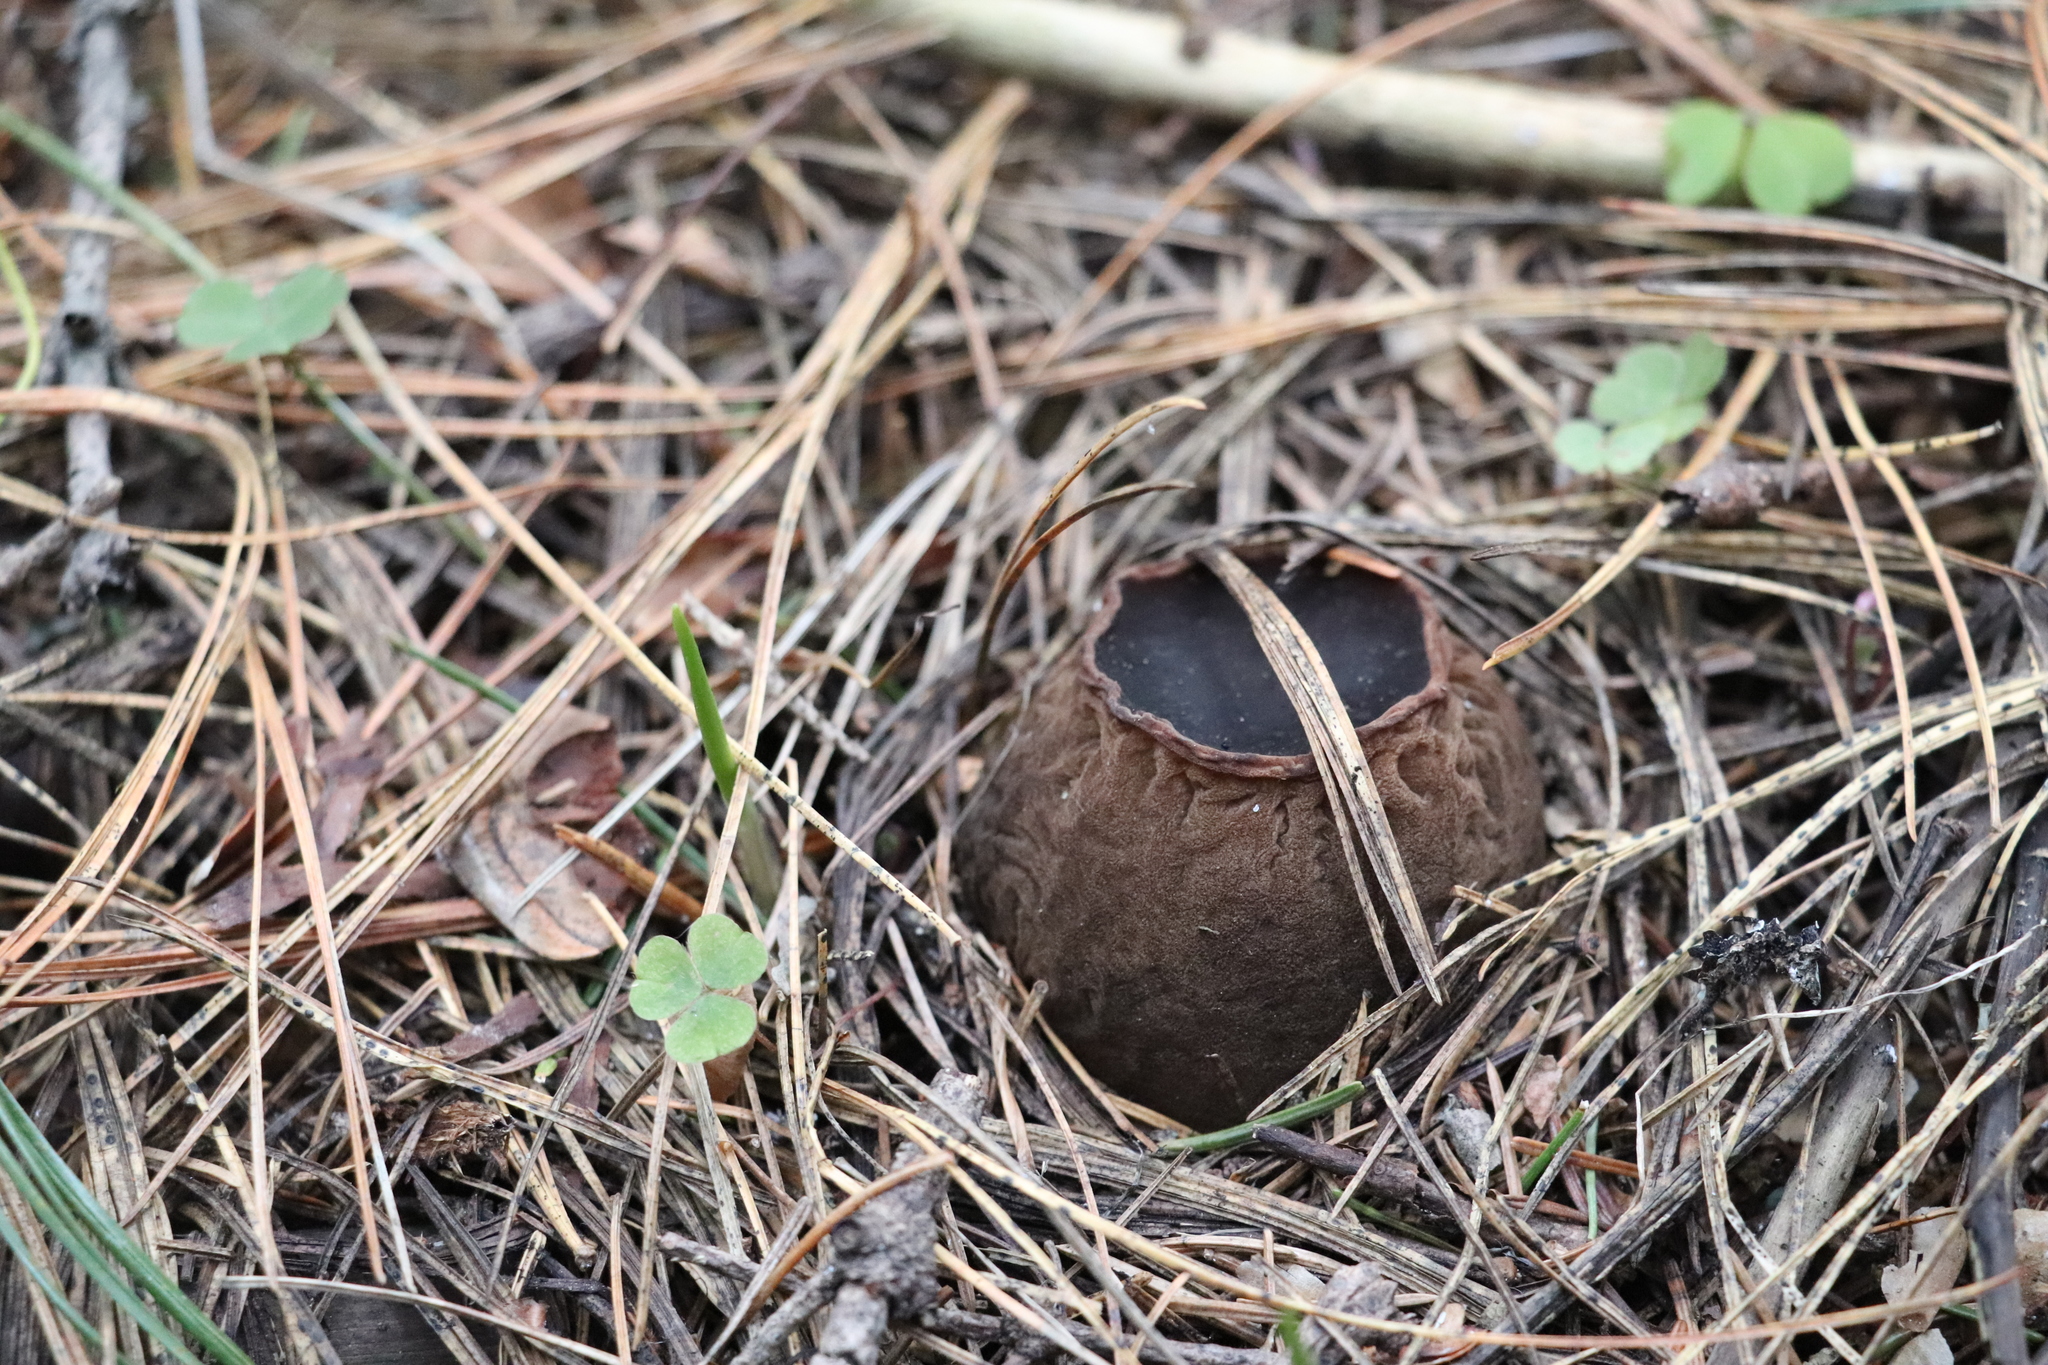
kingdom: Fungi
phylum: Ascomycota
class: Pezizomycetes
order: Pezizales
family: Sarcosomataceae
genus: Sarcosoma
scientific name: Sarcosoma globosum
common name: Charred-pancake cup
